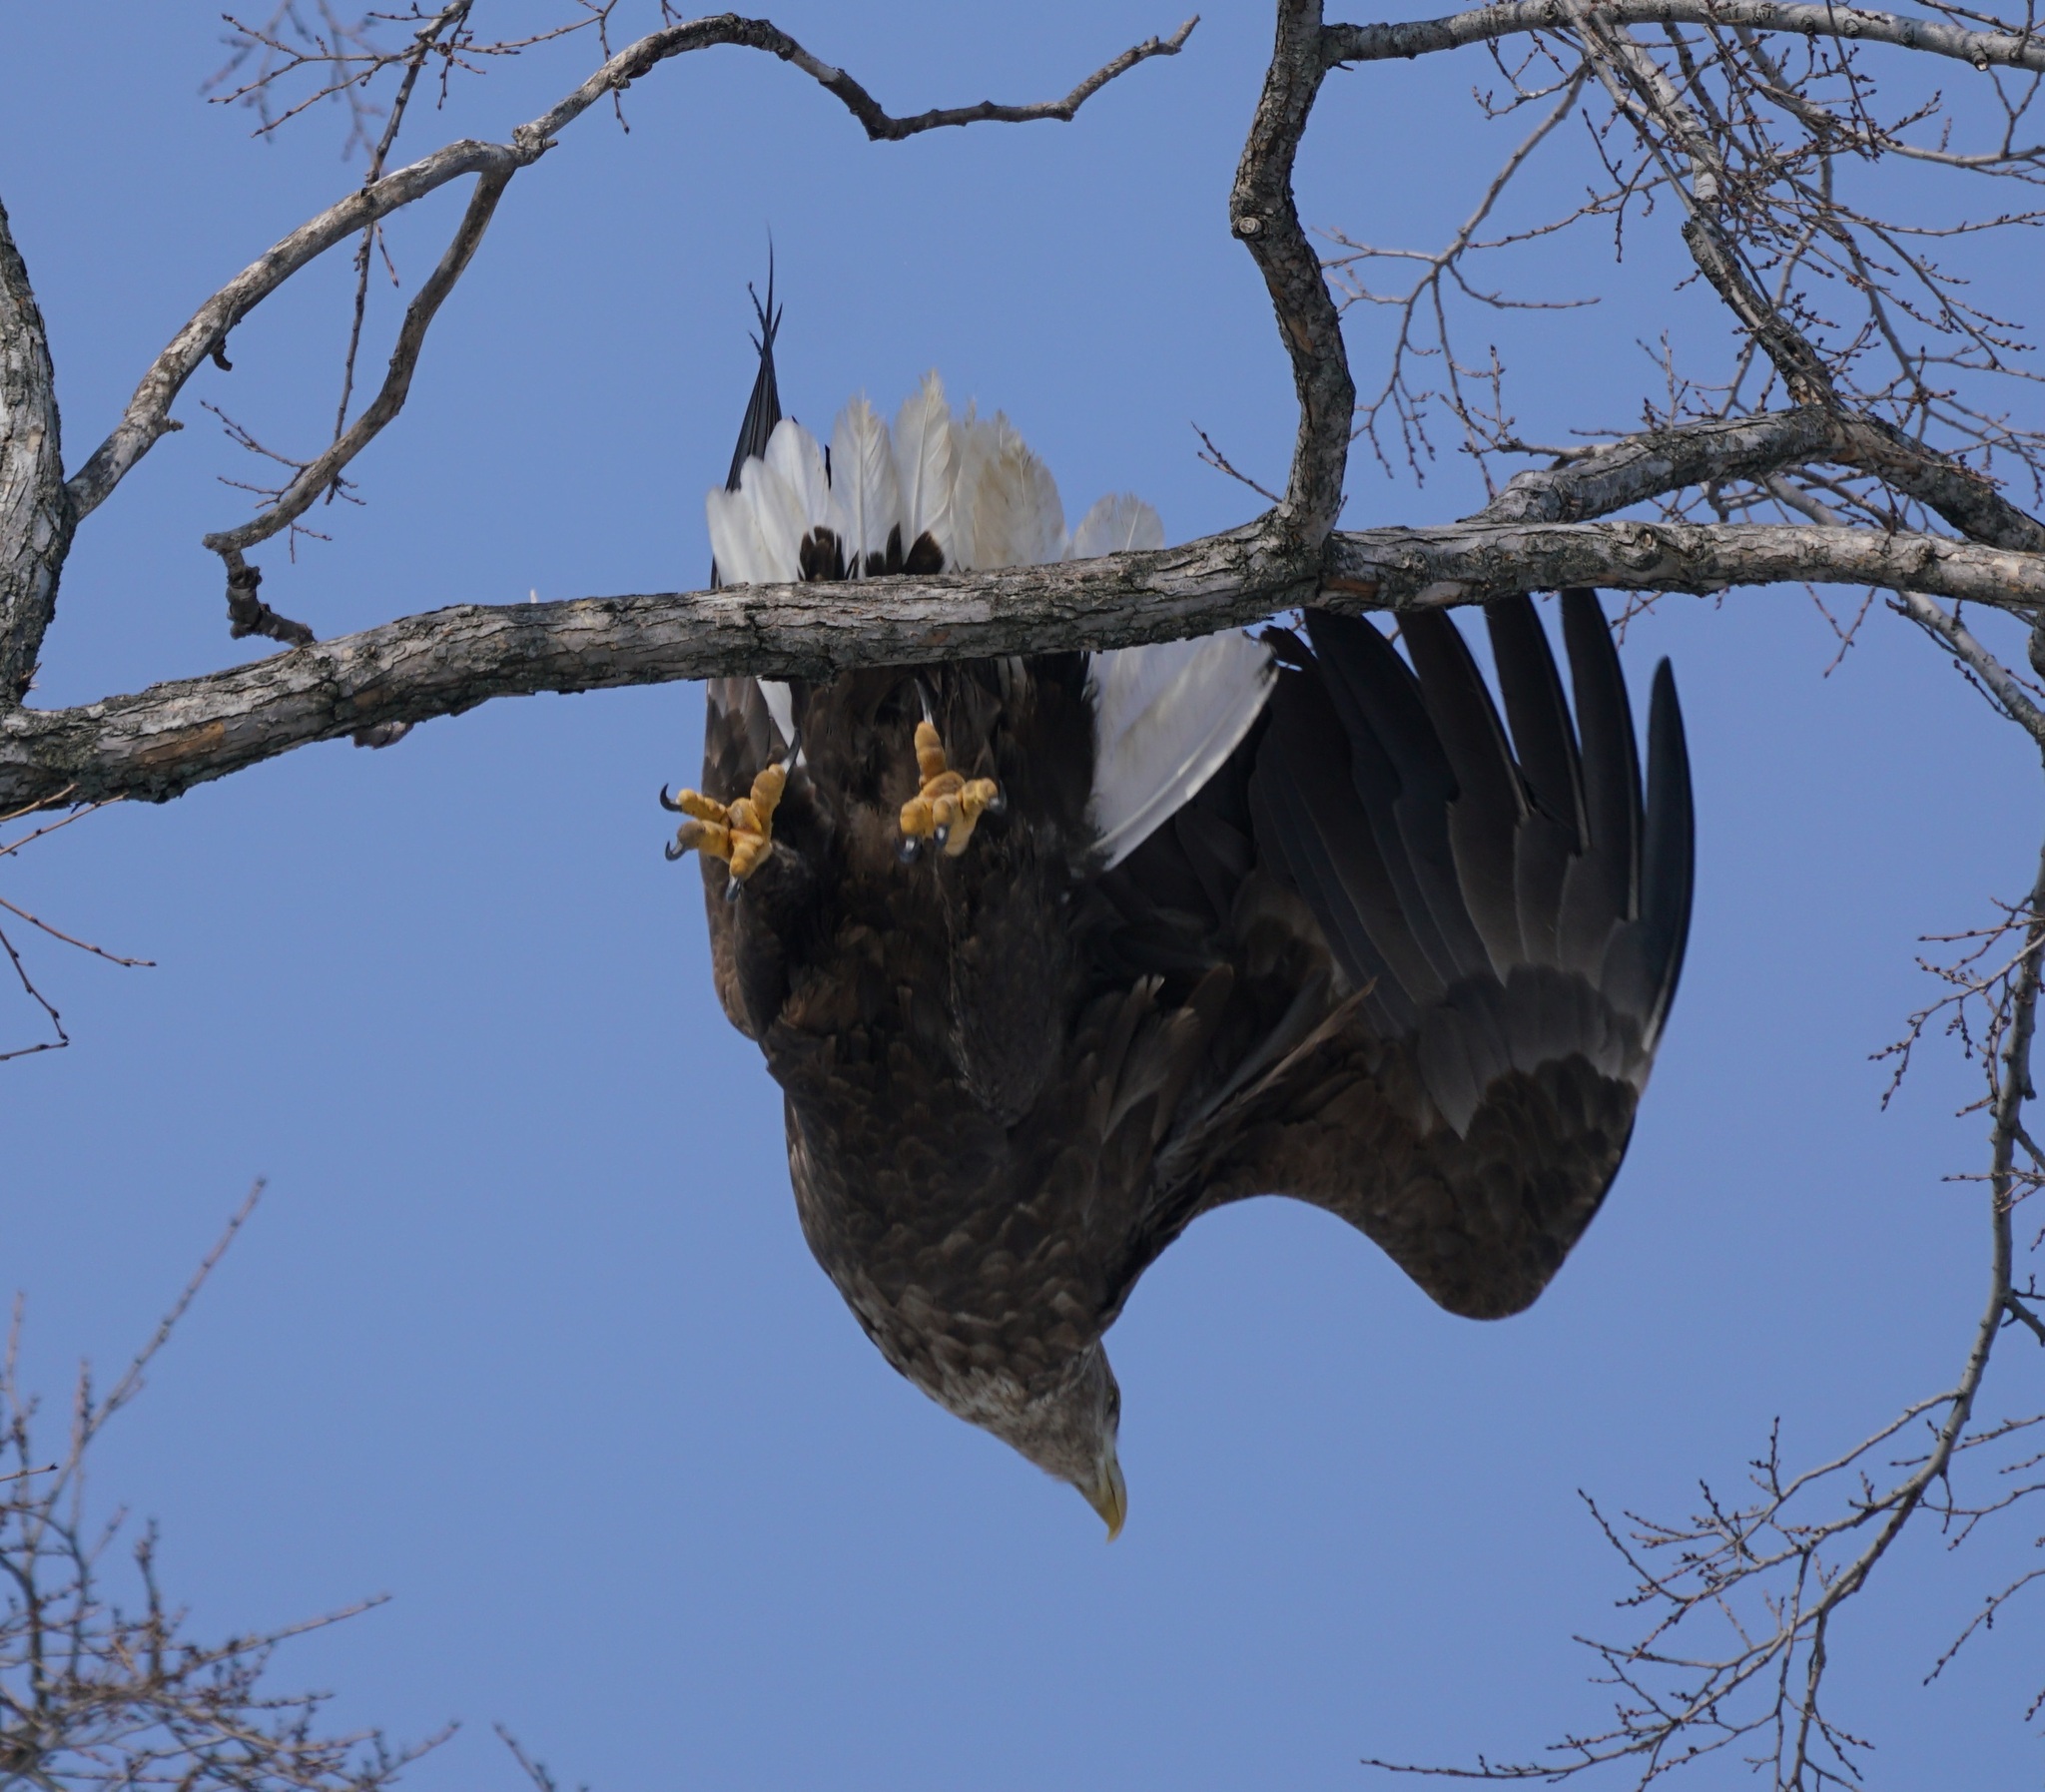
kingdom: Animalia
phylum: Chordata
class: Aves
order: Accipitriformes
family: Accipitridae
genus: Haliaeetus
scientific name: Haliaeetus albicilla
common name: White-tailed eagle
